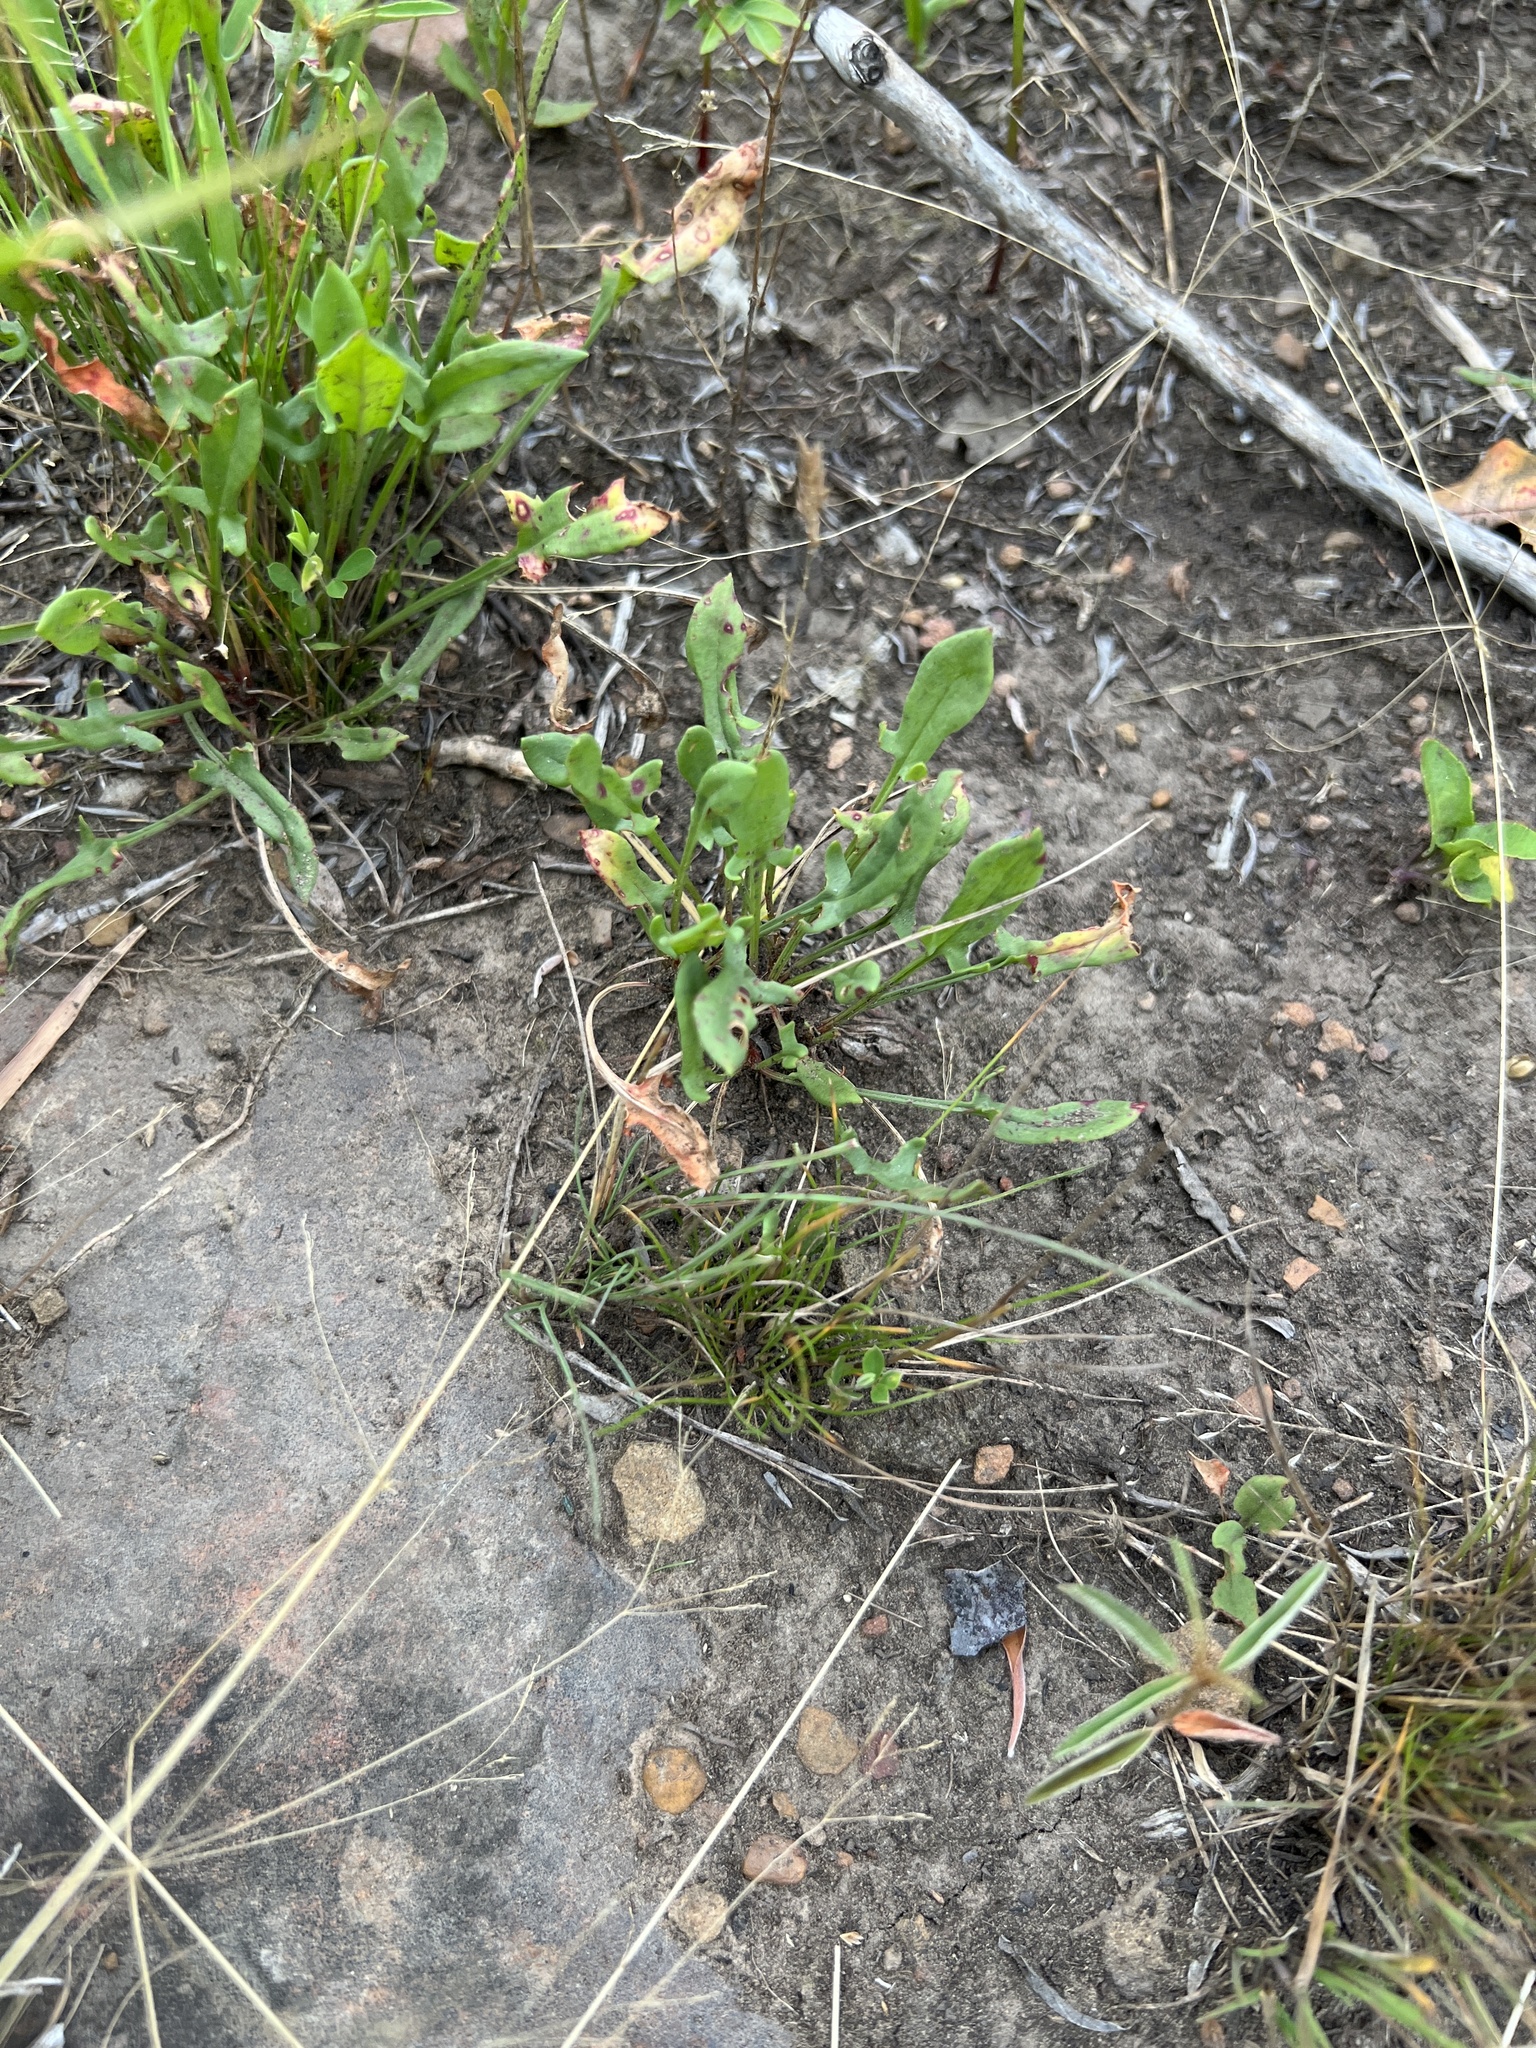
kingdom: Plantae
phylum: Tracheophyta
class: Magnoliopsida
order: Caryophyllales
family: Polygonaceae
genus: Rumex
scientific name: Rumex acetosella
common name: Common sheep sorrel
